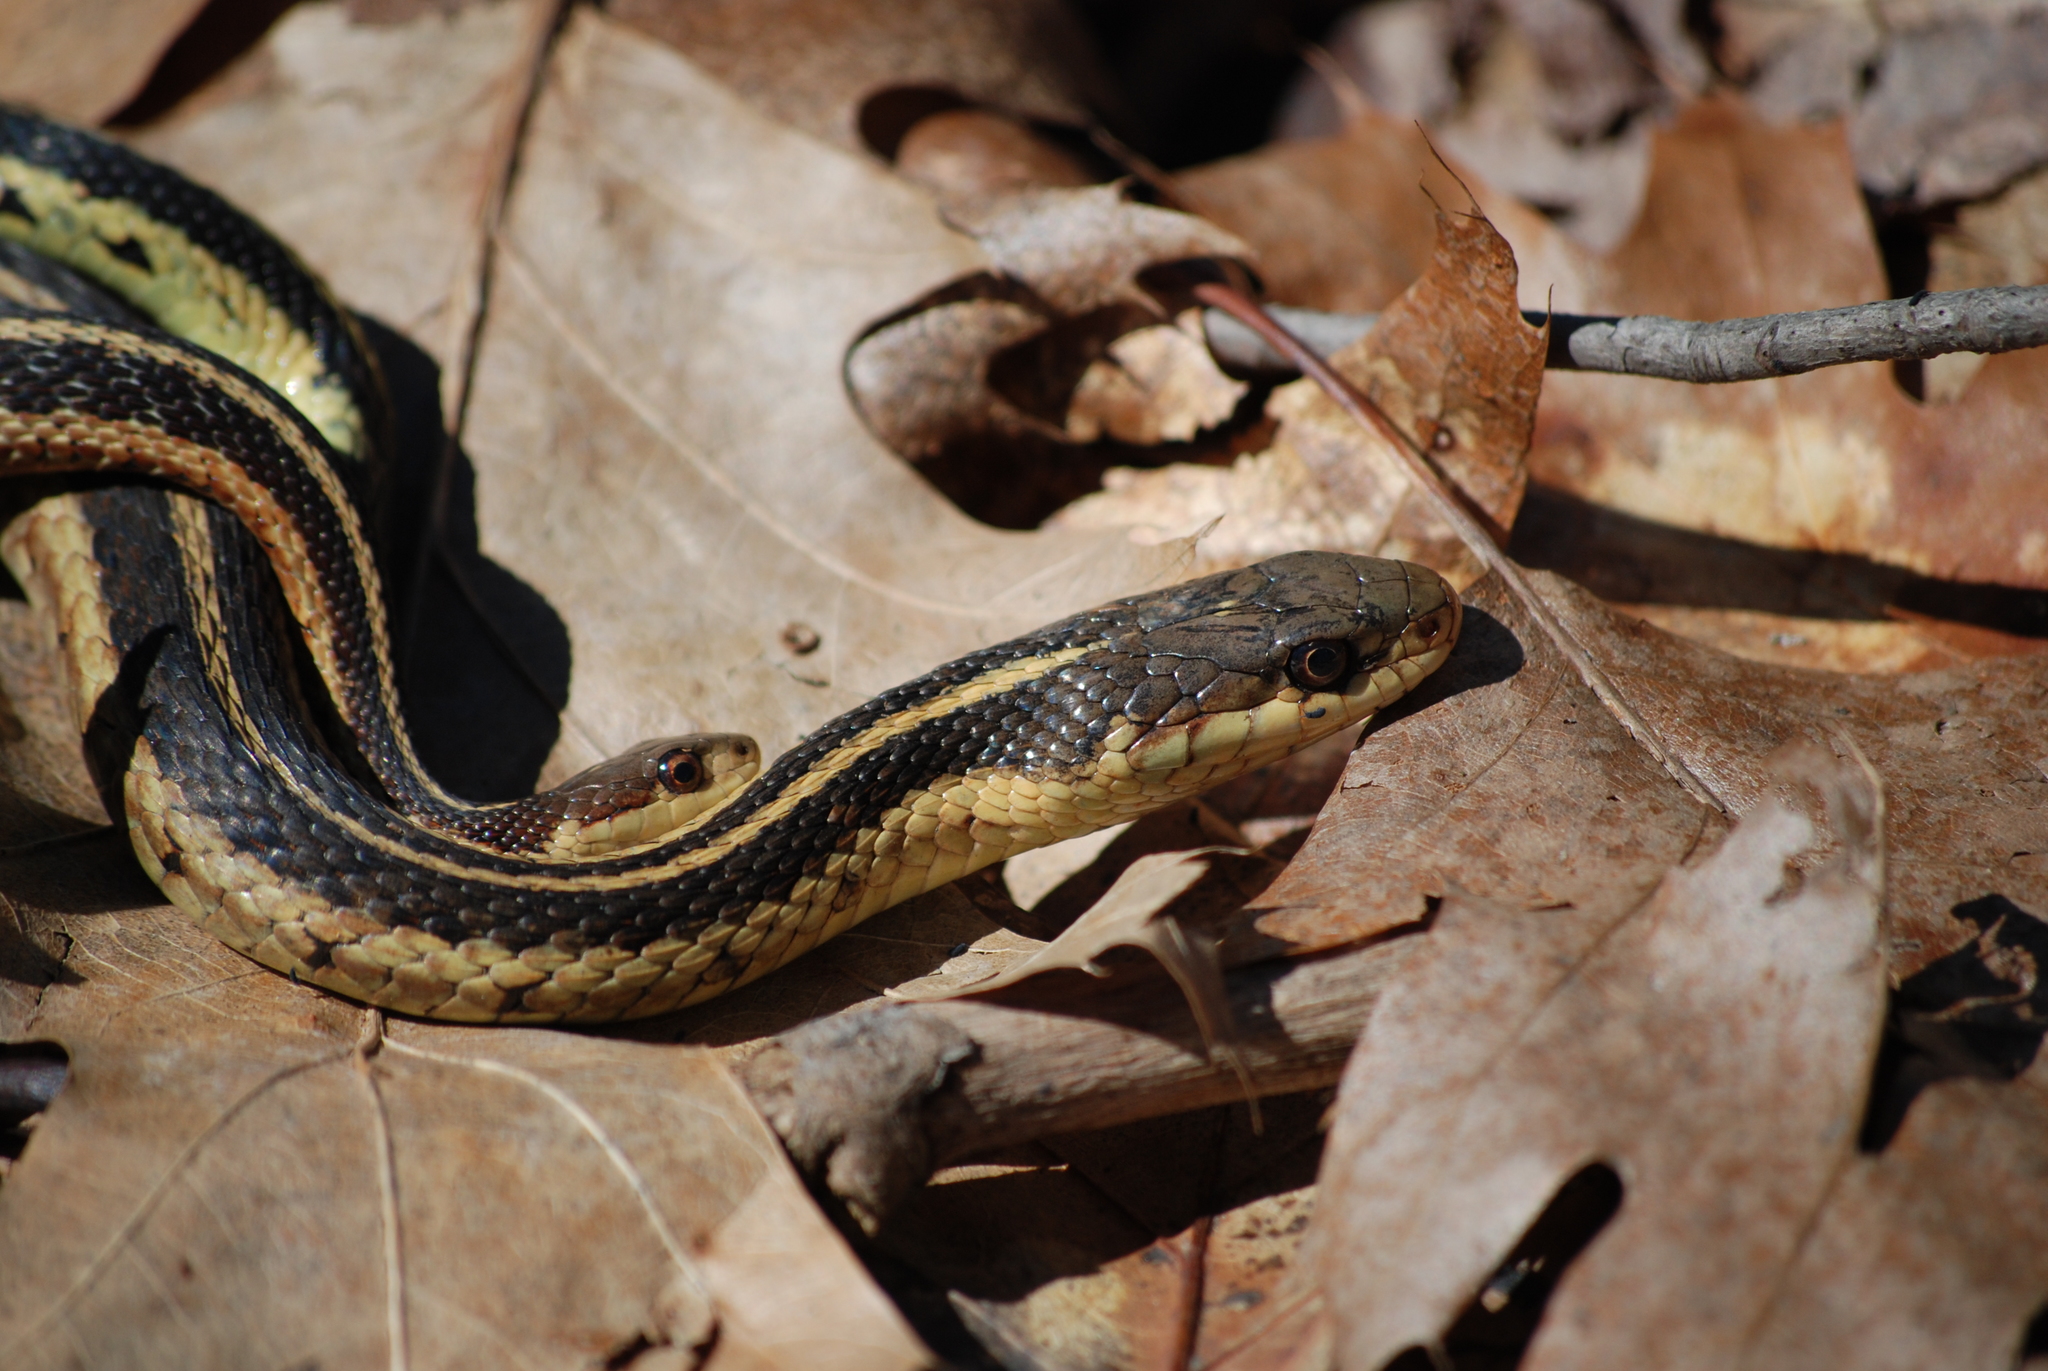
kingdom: Animalia
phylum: Chordata
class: Squamata
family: Colubridae
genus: Thamnophis
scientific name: Thamnophis sirtalis
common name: Common garter snake
